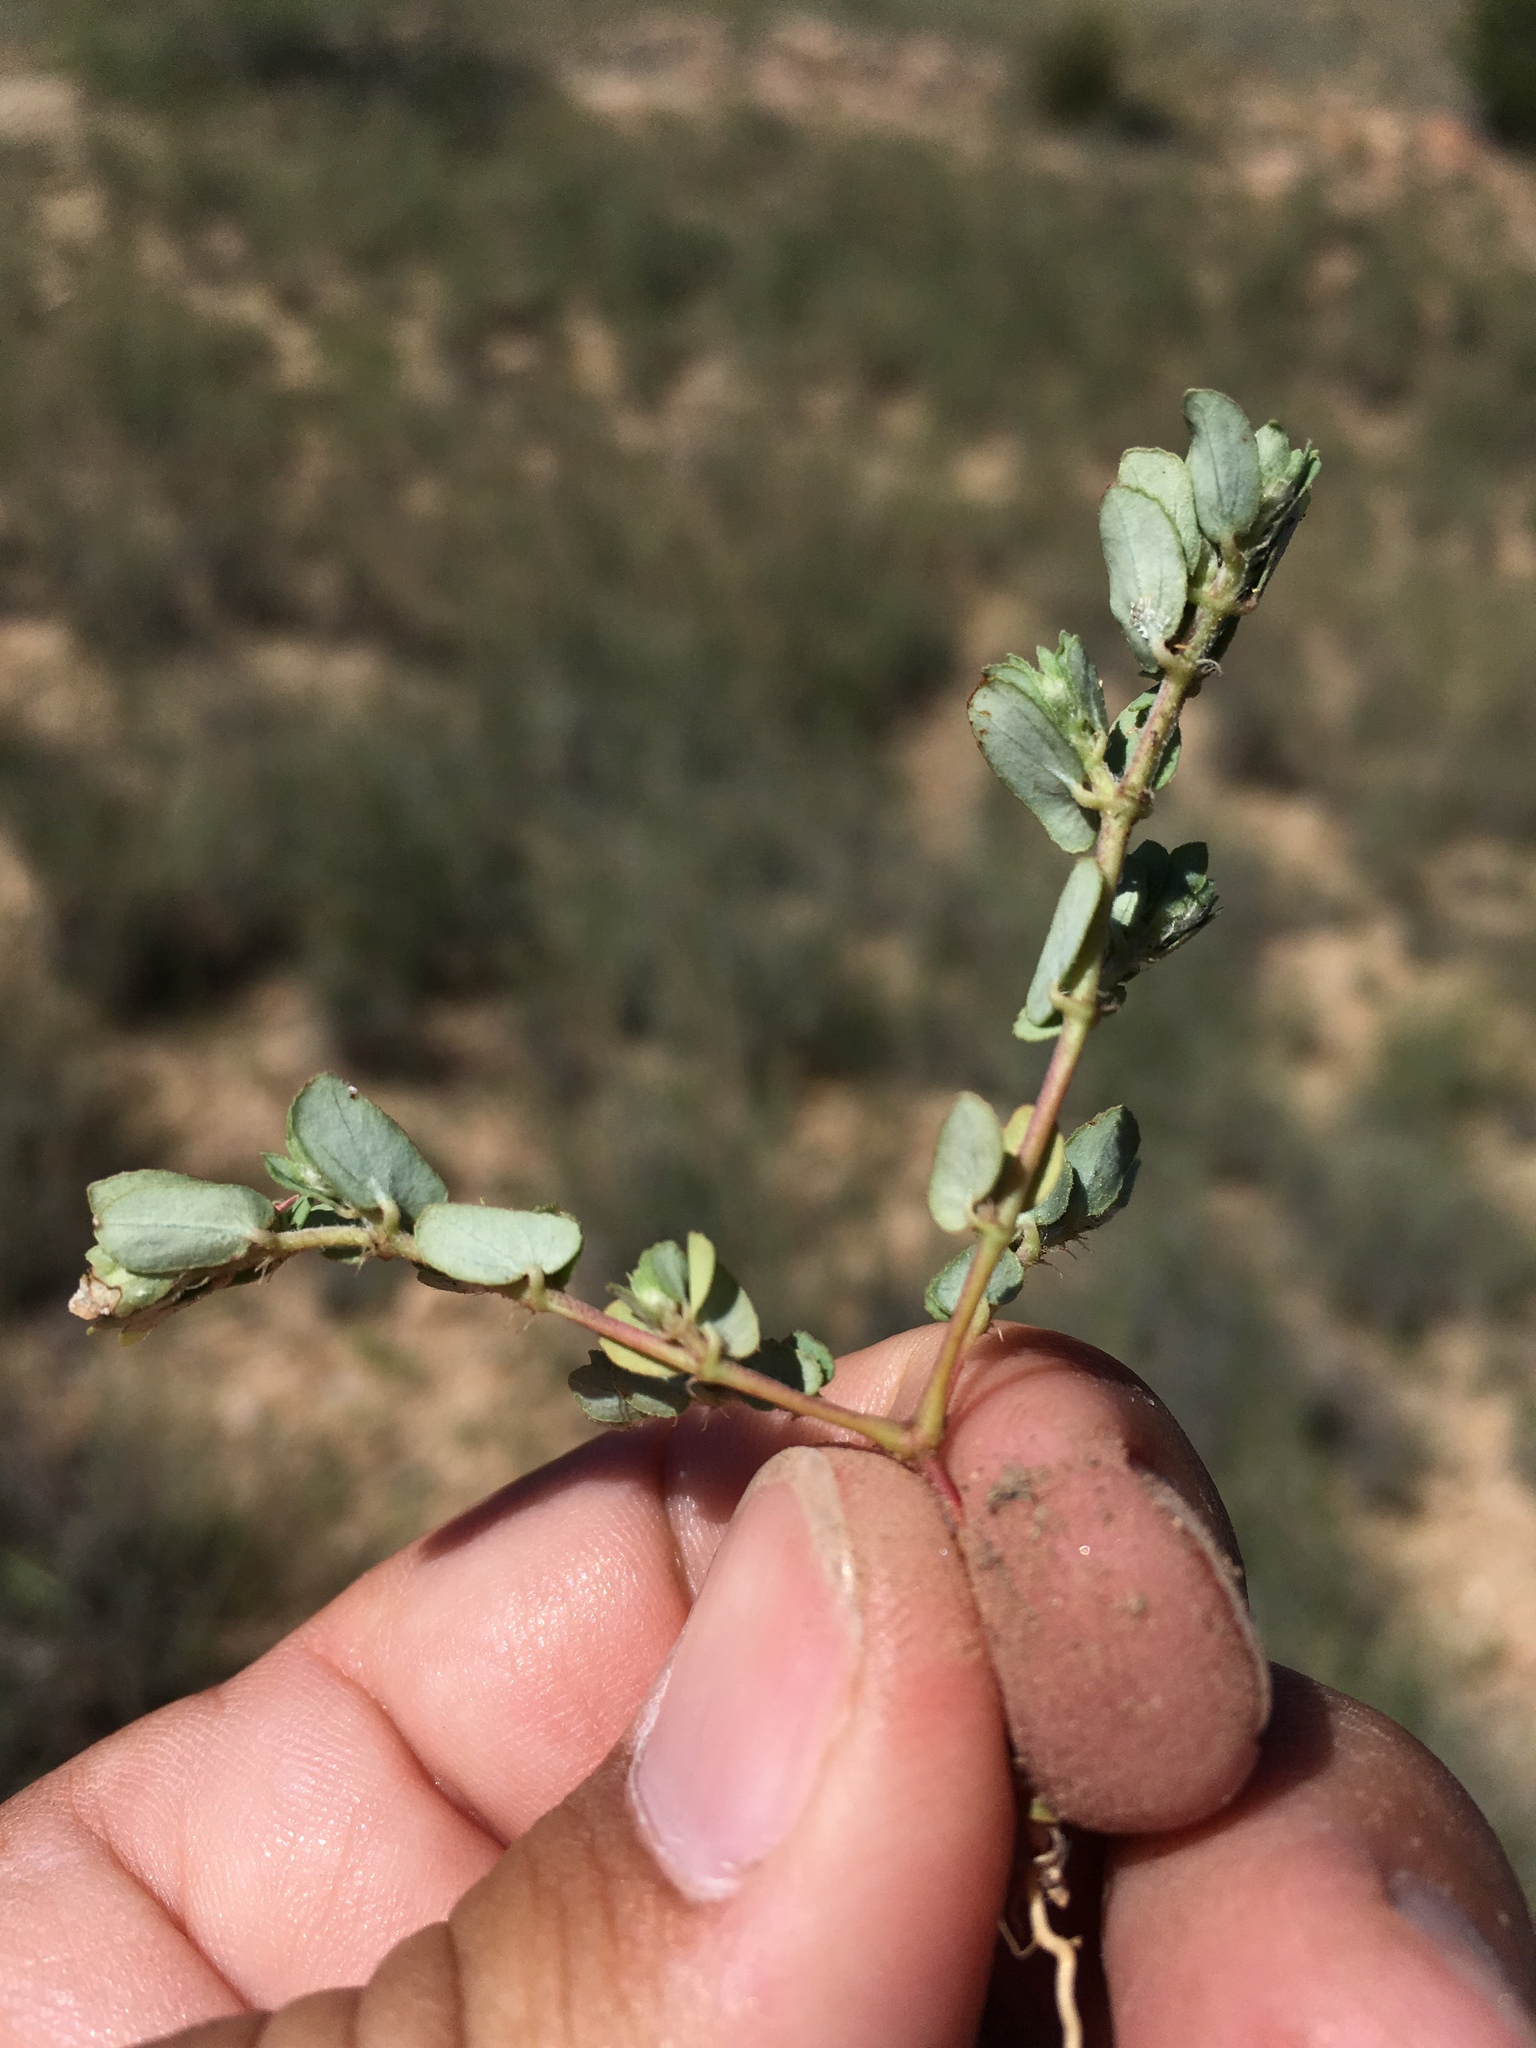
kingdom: Plantae
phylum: Tracheophyta
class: Magnoliopsida
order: Malpighiales
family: Euphorbiaceae
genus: Euphorbia
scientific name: Euphorbia indivisa
